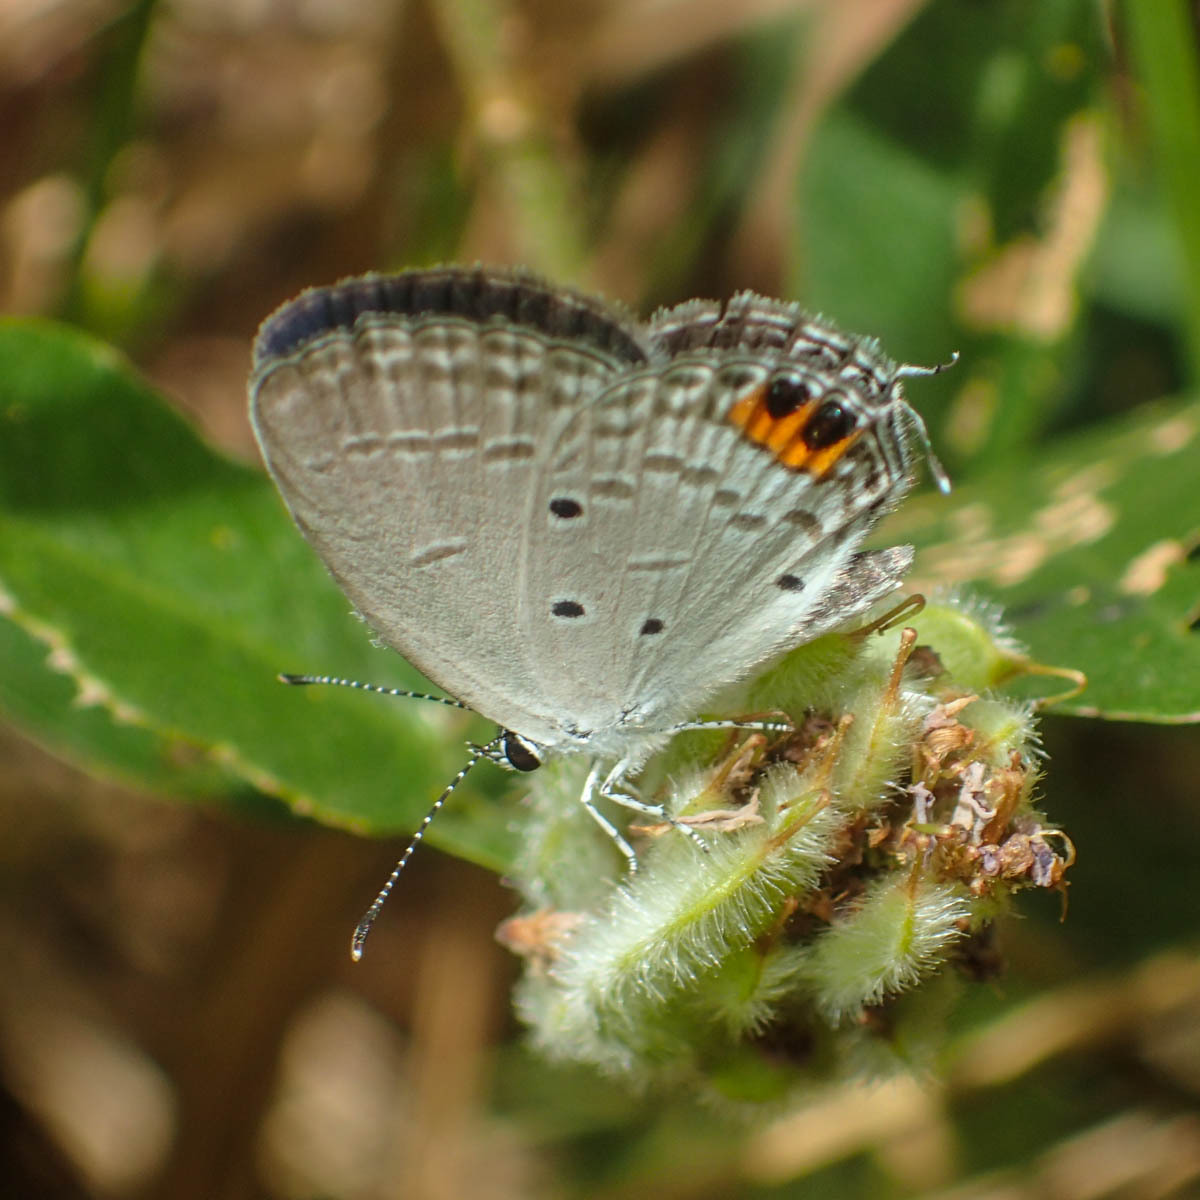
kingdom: Animalia
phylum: Arthropoda
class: Insecta
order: Lepidoptera
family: Lycaenidae
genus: Everes
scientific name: Everes lacturnus
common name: Orange-tipped pea-blue
